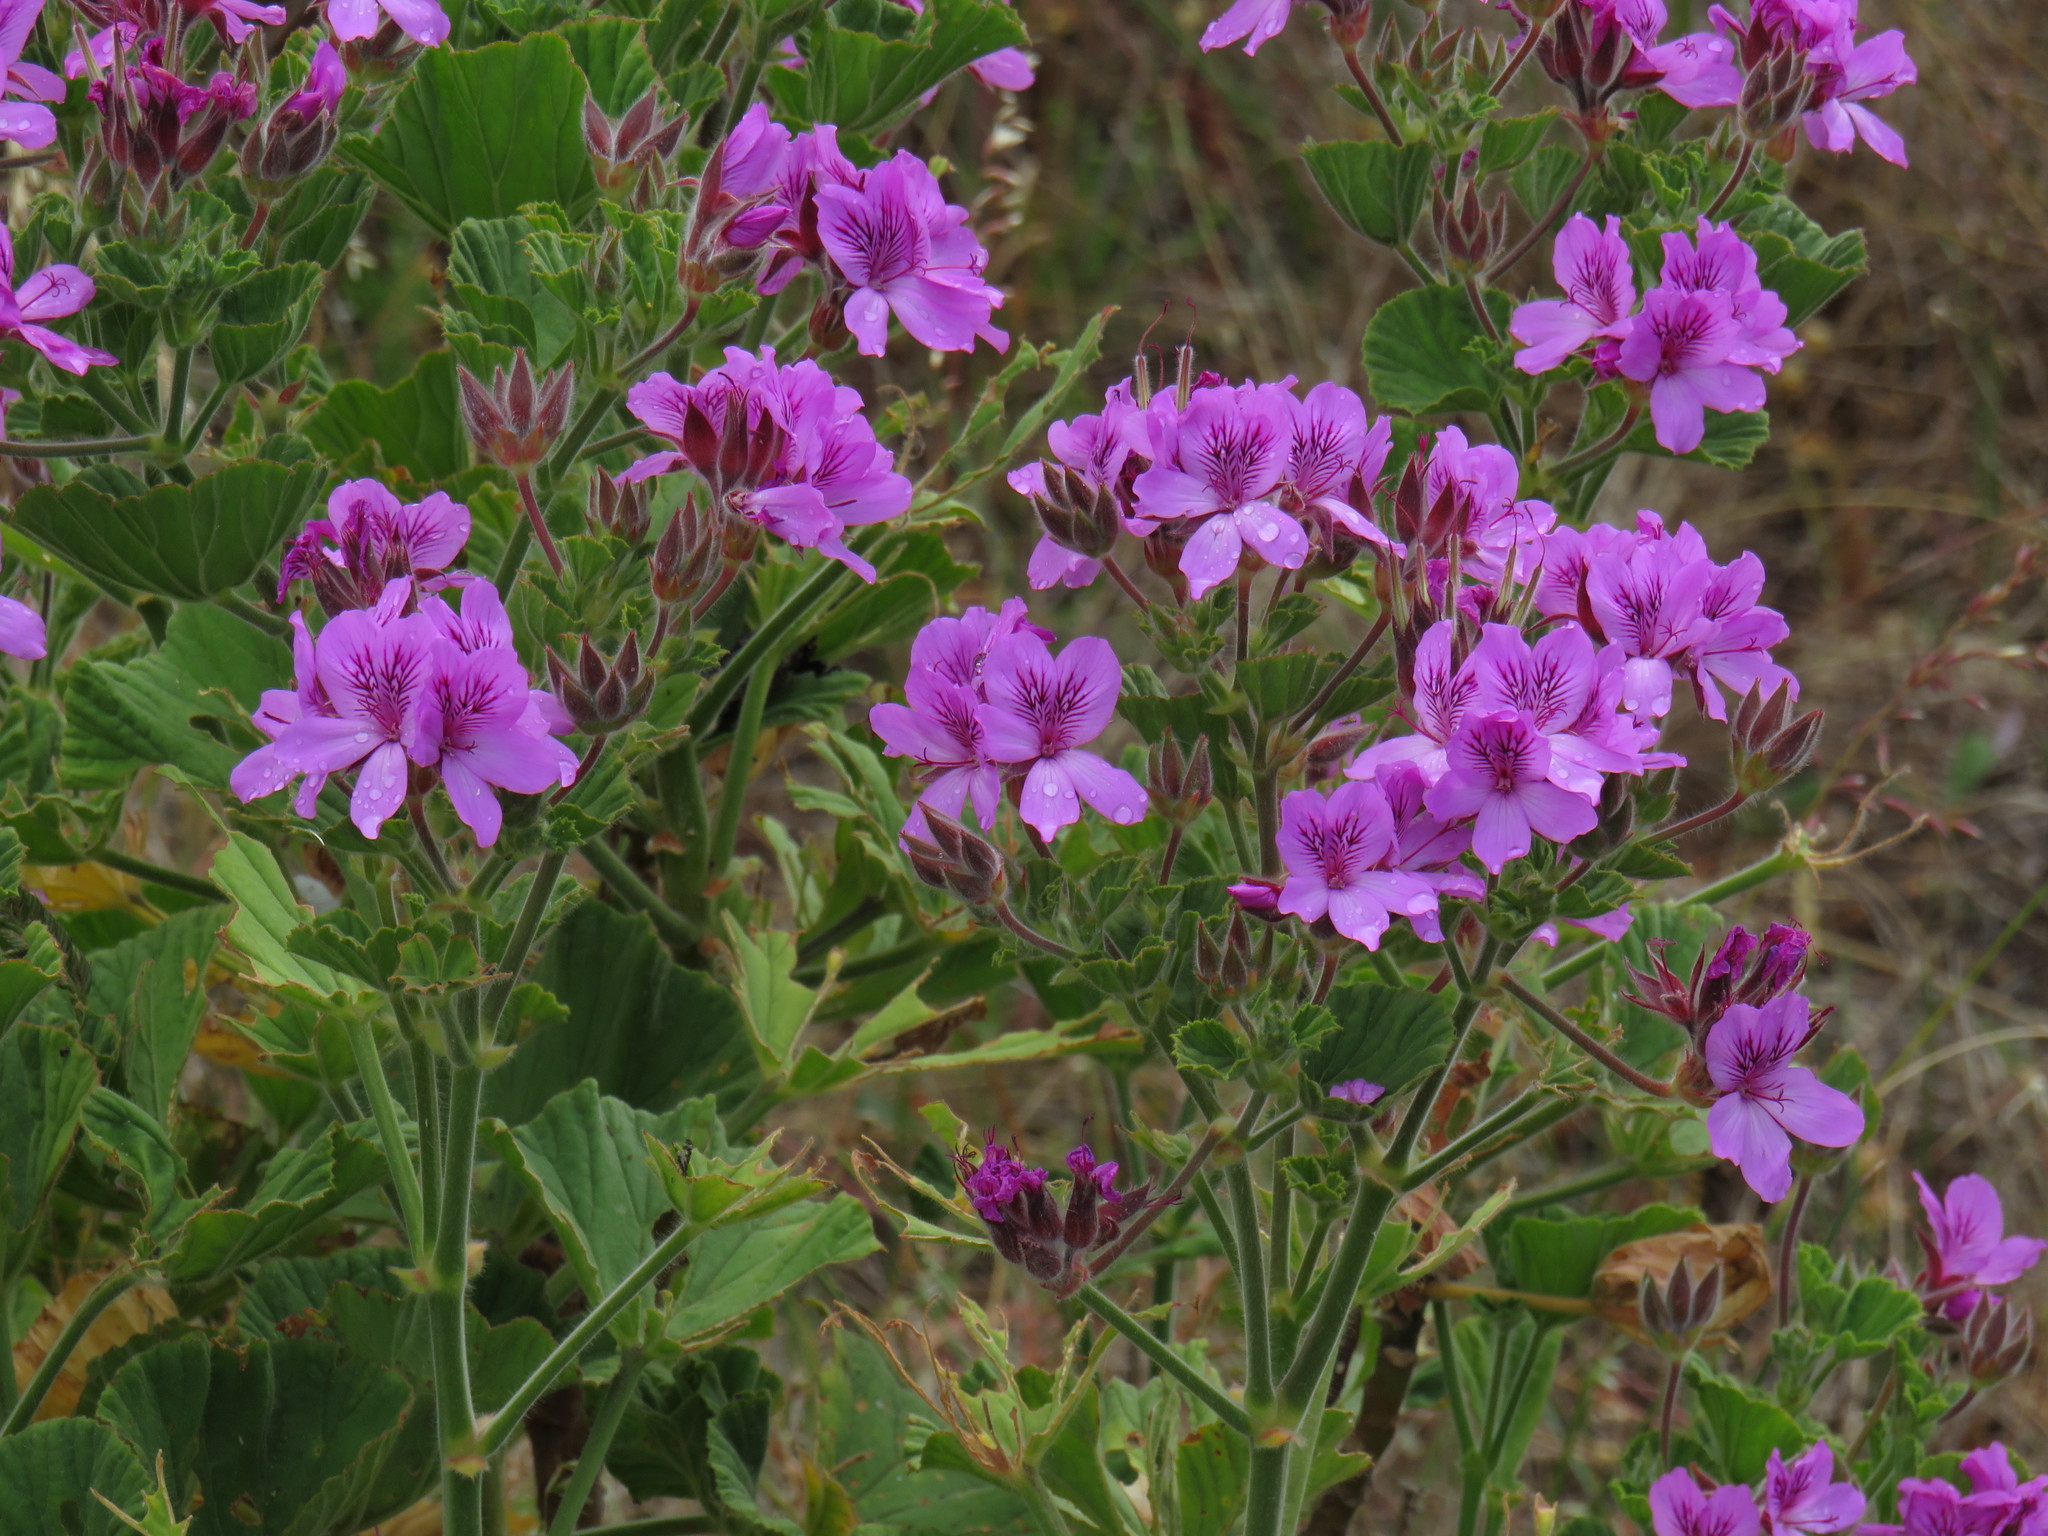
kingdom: Plantae
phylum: Tracheophyta
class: Magnoliopsida
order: Geraniales
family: Geraniaceae
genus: Pelargonium
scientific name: Pelargonium cucullatum
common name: Tree pelargonium
